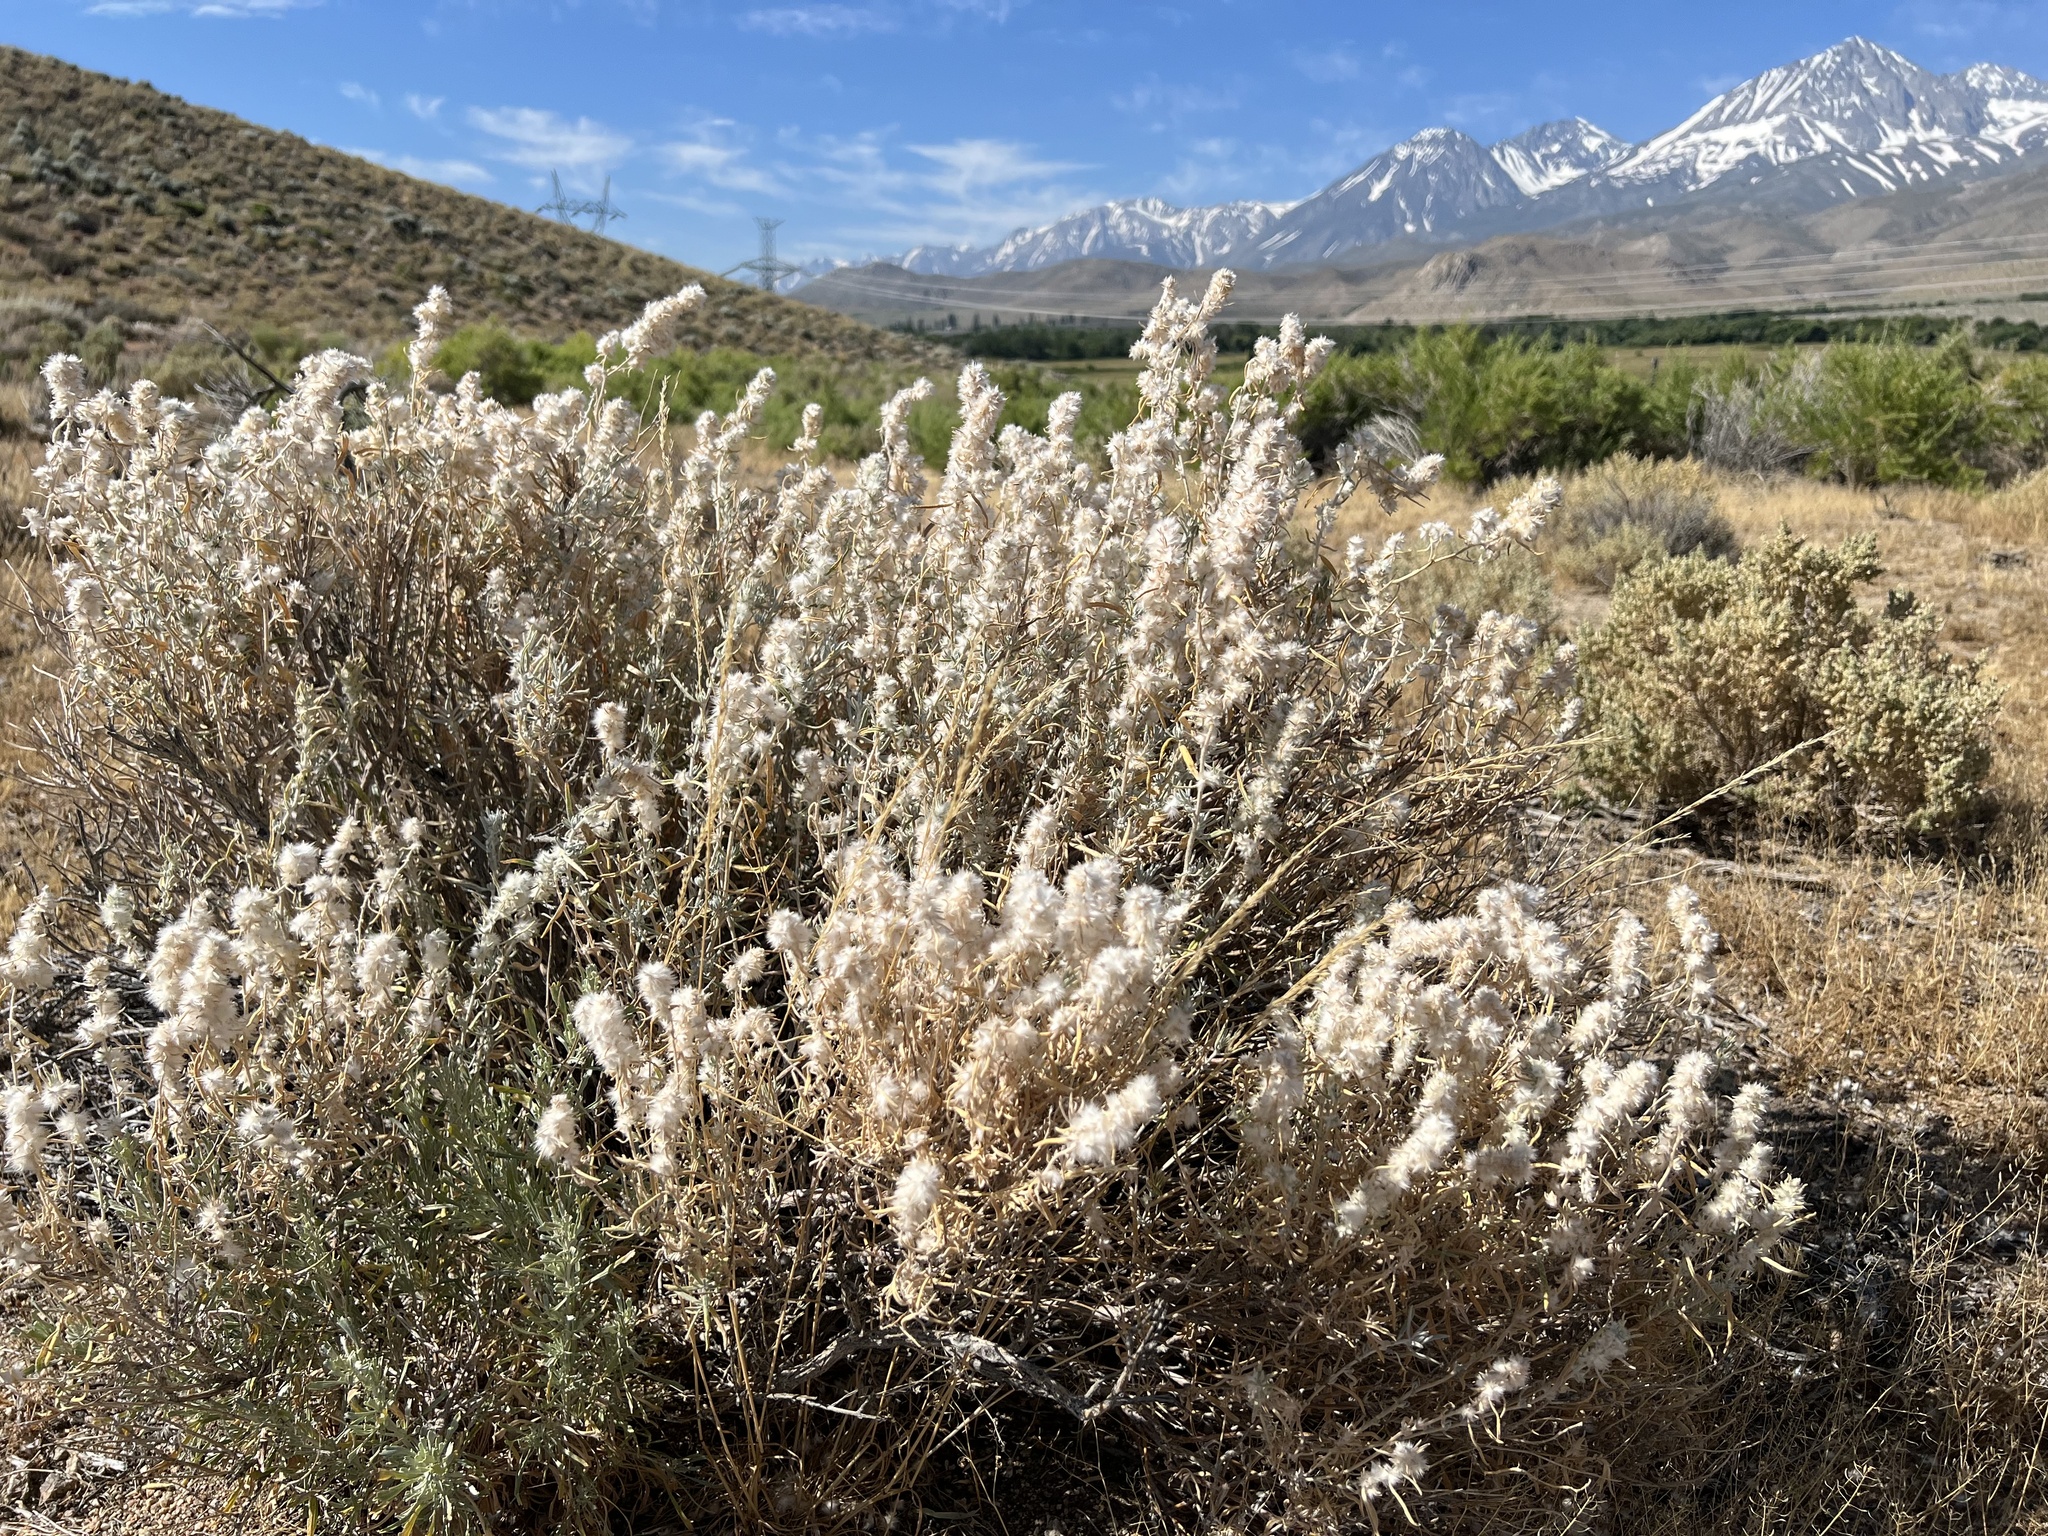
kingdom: Plantae
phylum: Tracheophyta
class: Magnoliopsida
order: Caryophyllales
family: Amaranthaceae
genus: Krascheninnikovia
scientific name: Krascheninnikovia lanata
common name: Winterfat
